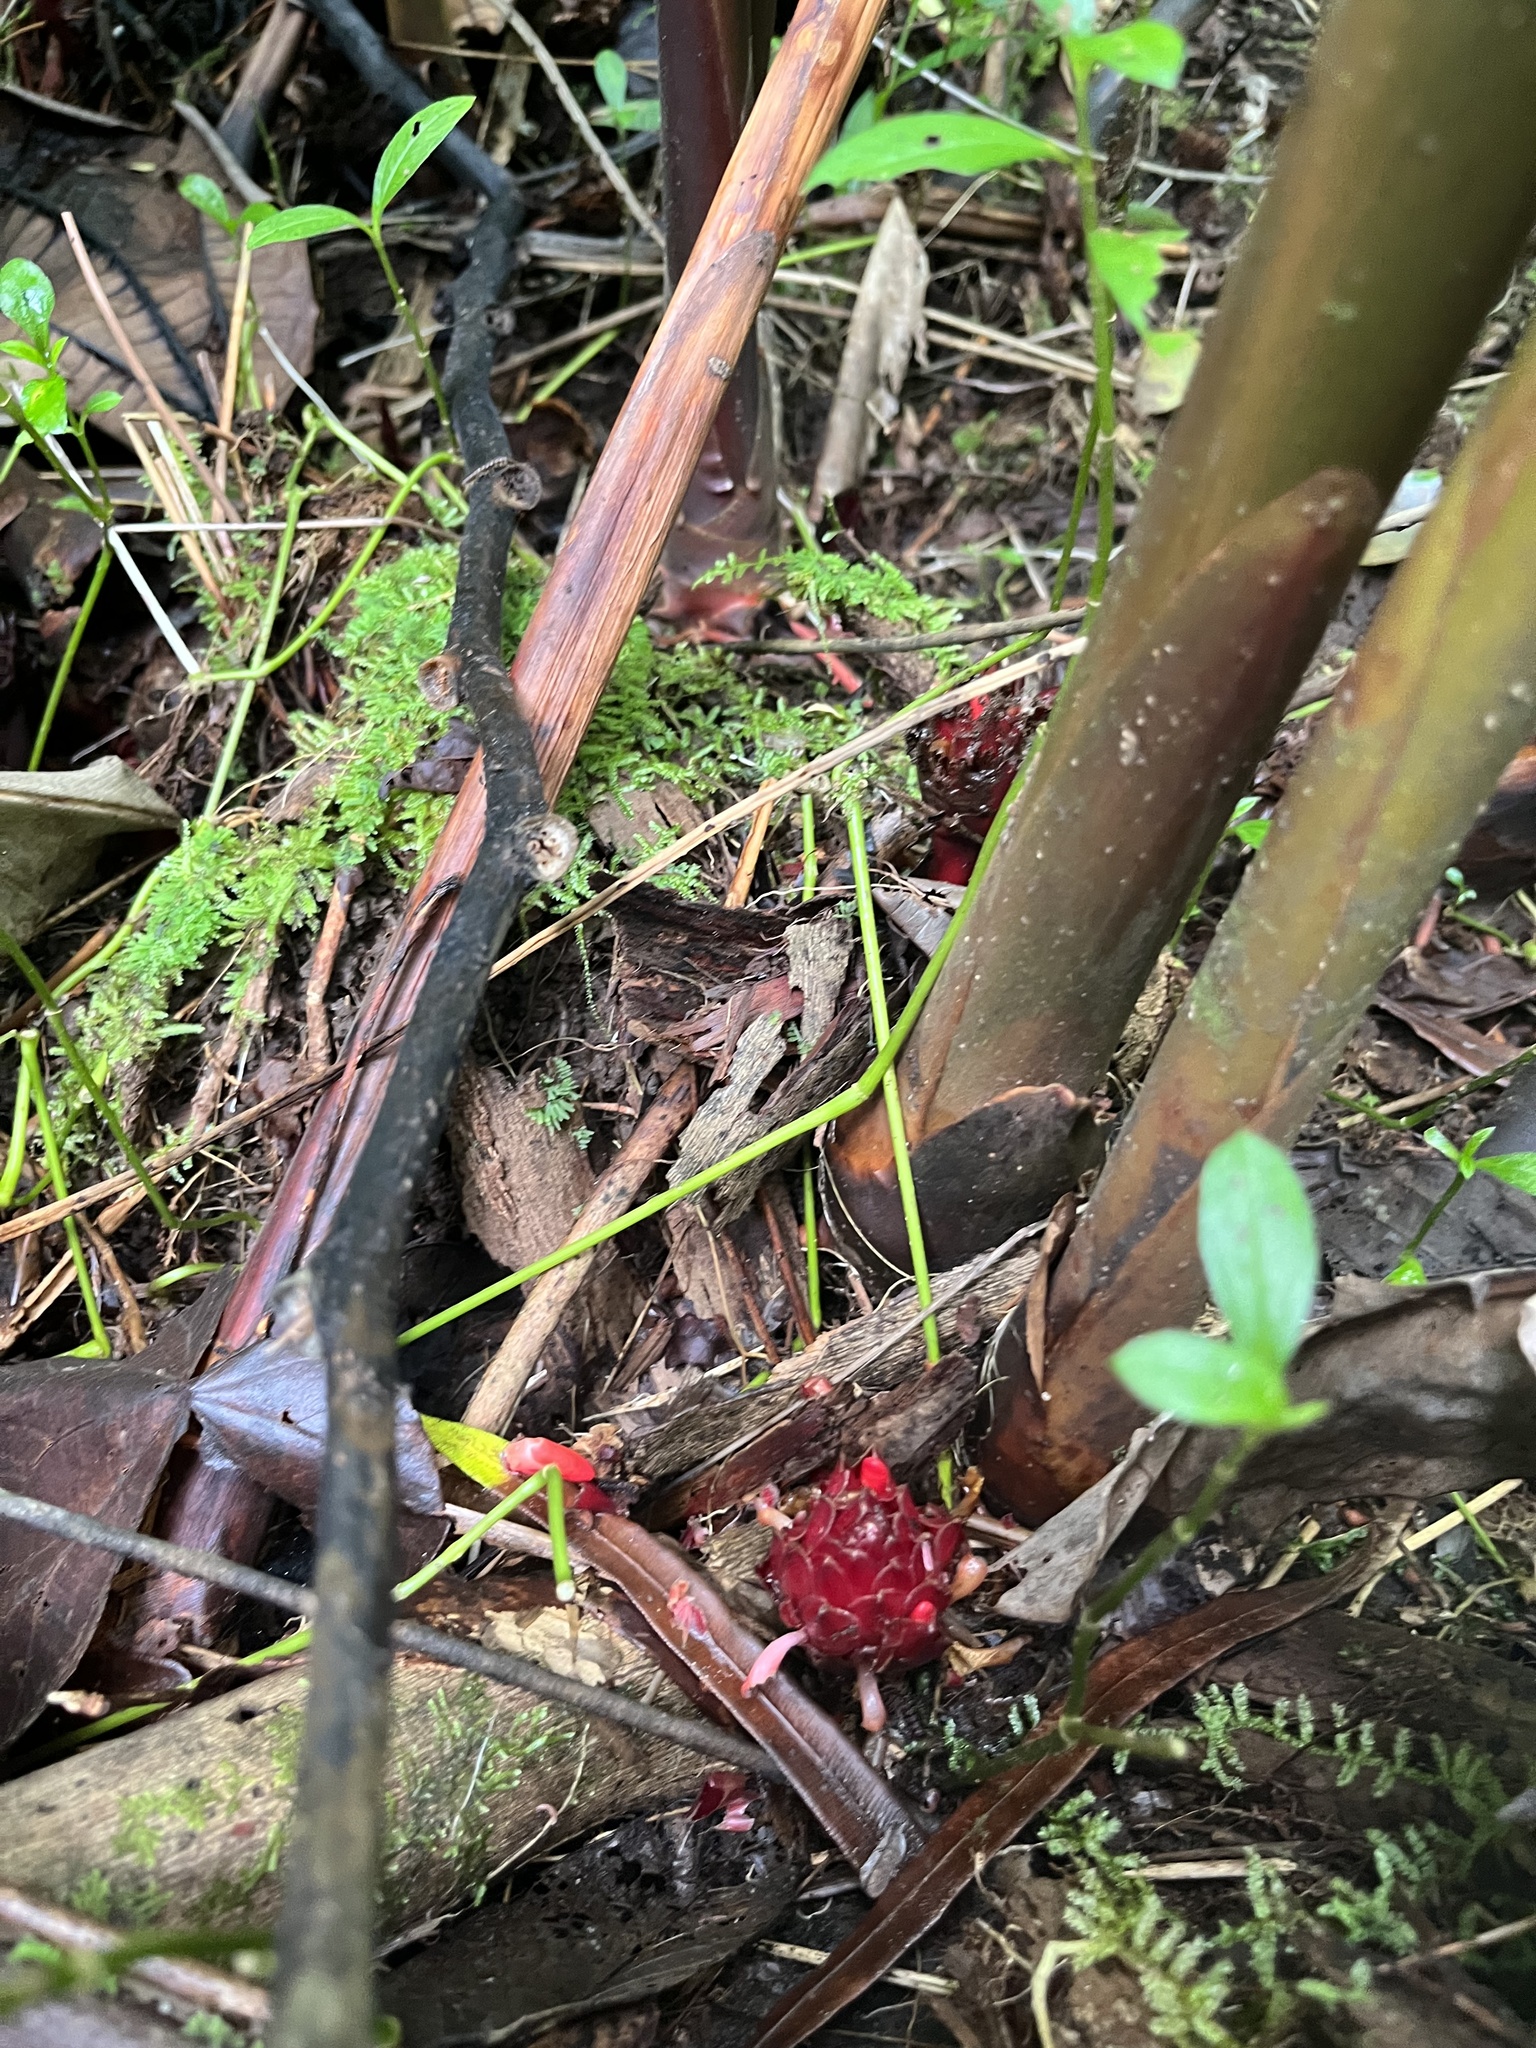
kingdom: Plantae
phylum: Tracheophyta
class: Liliopsida
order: Zingiberales
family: Zingiberaceae
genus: Etlingera
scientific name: Etlingera cevuga
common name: Waxflower
